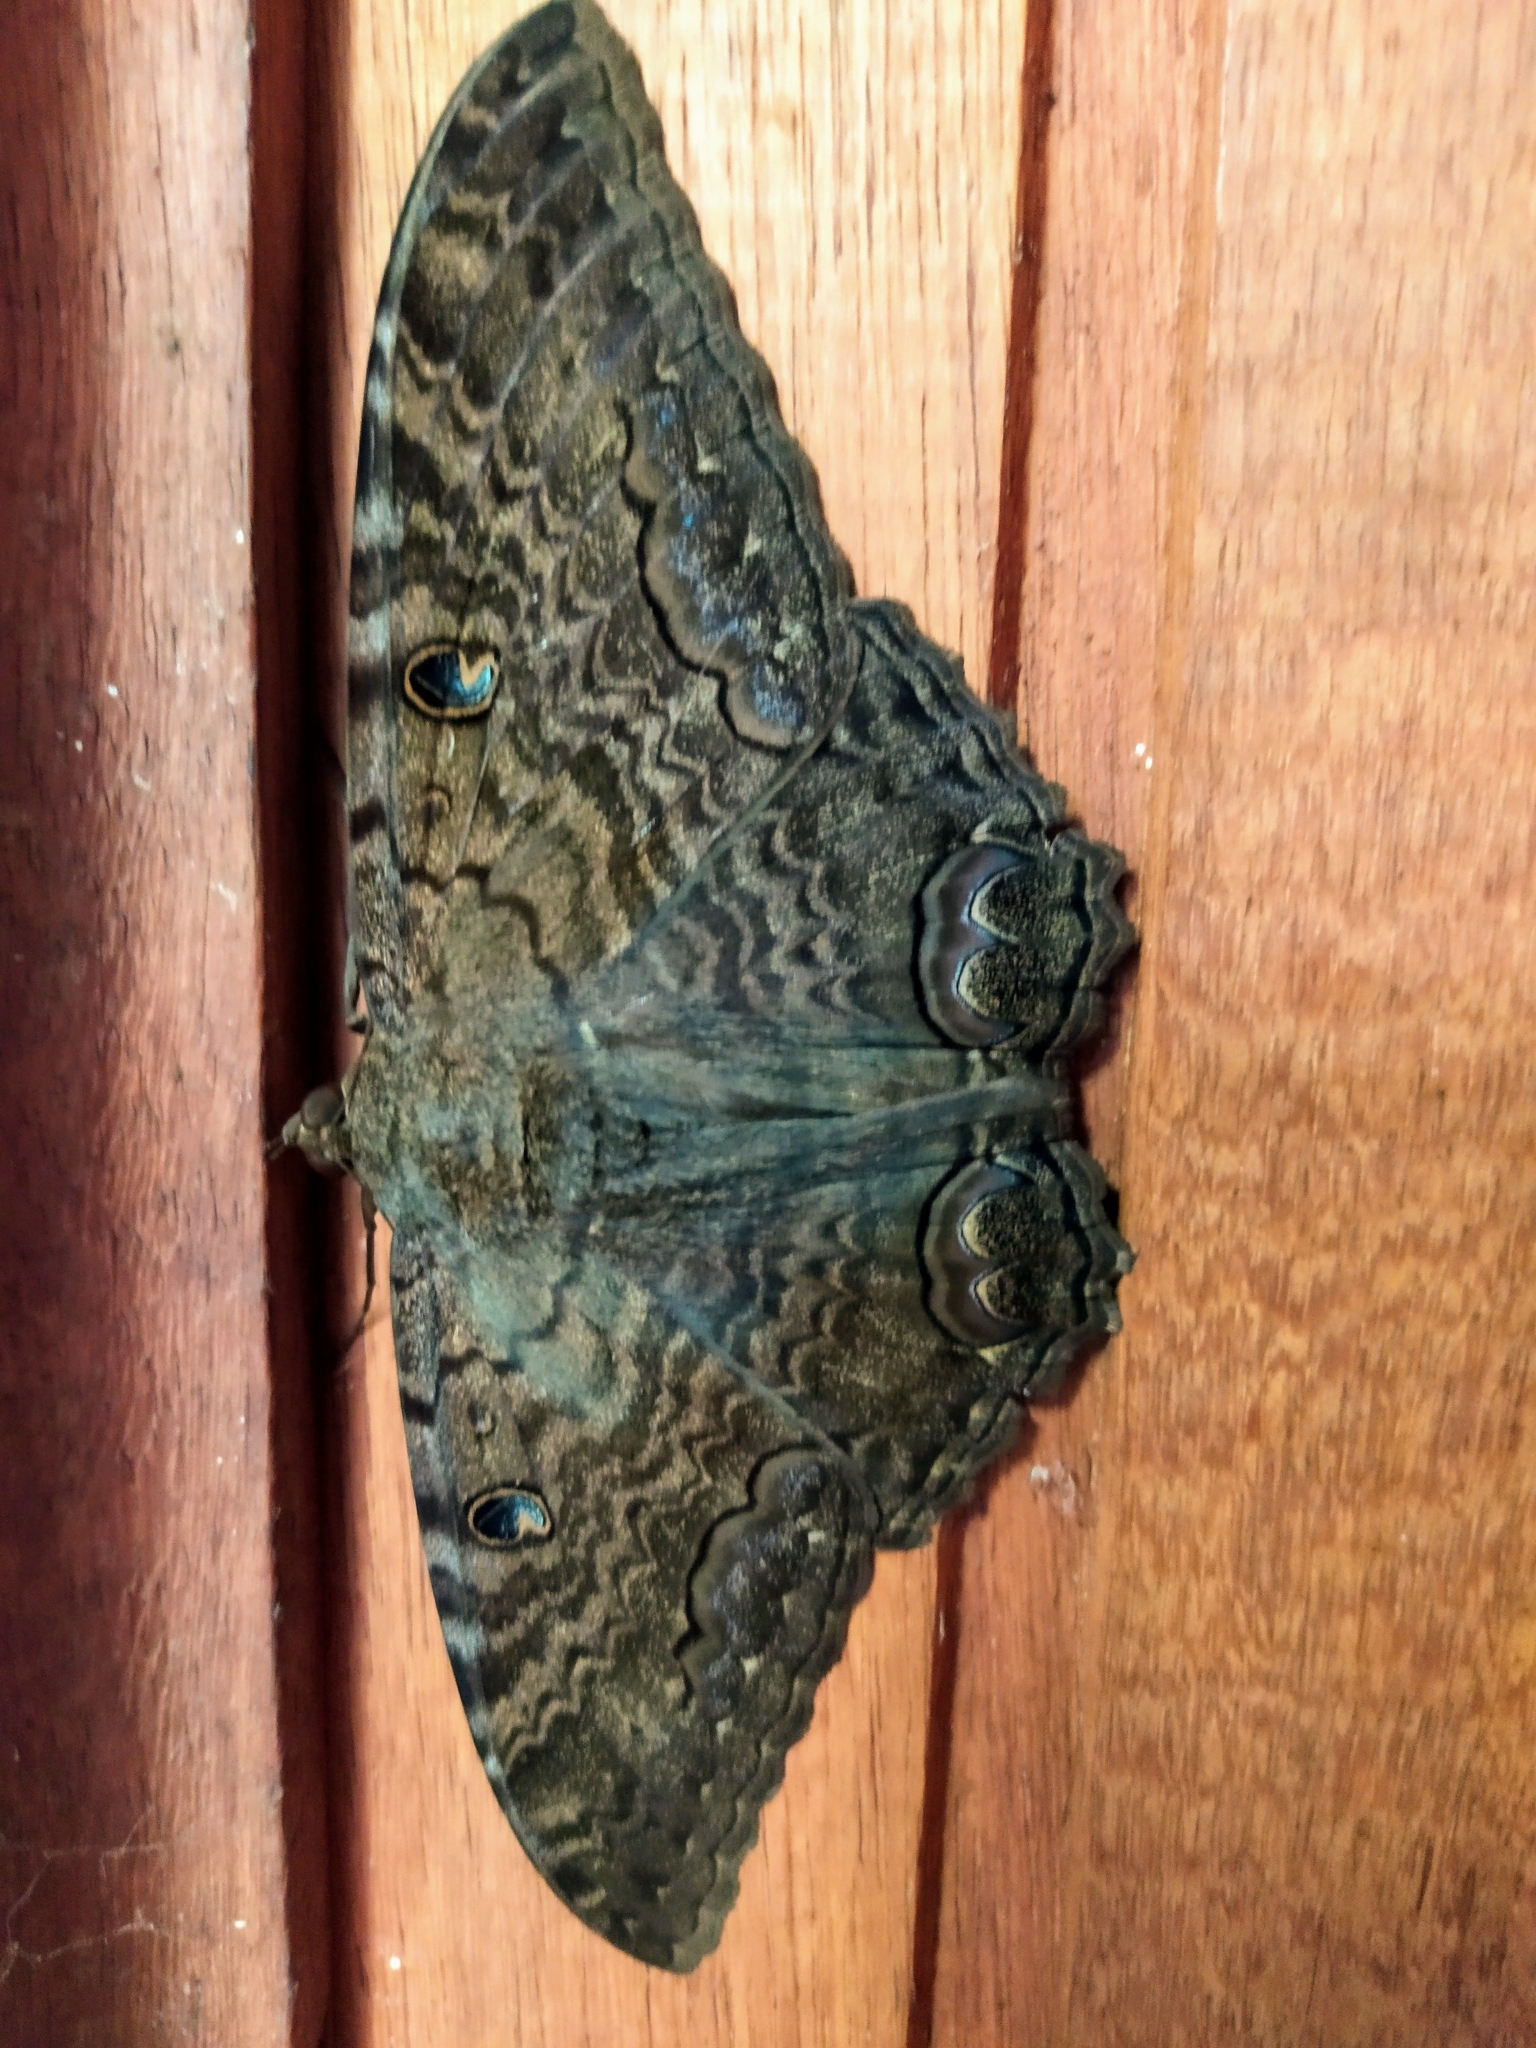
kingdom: Animalia
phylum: Arthropoda
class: Insecta
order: Lepidoptera
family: Erebidae
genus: Ascalapha
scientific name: Ascalapha odorata
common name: Black witch
